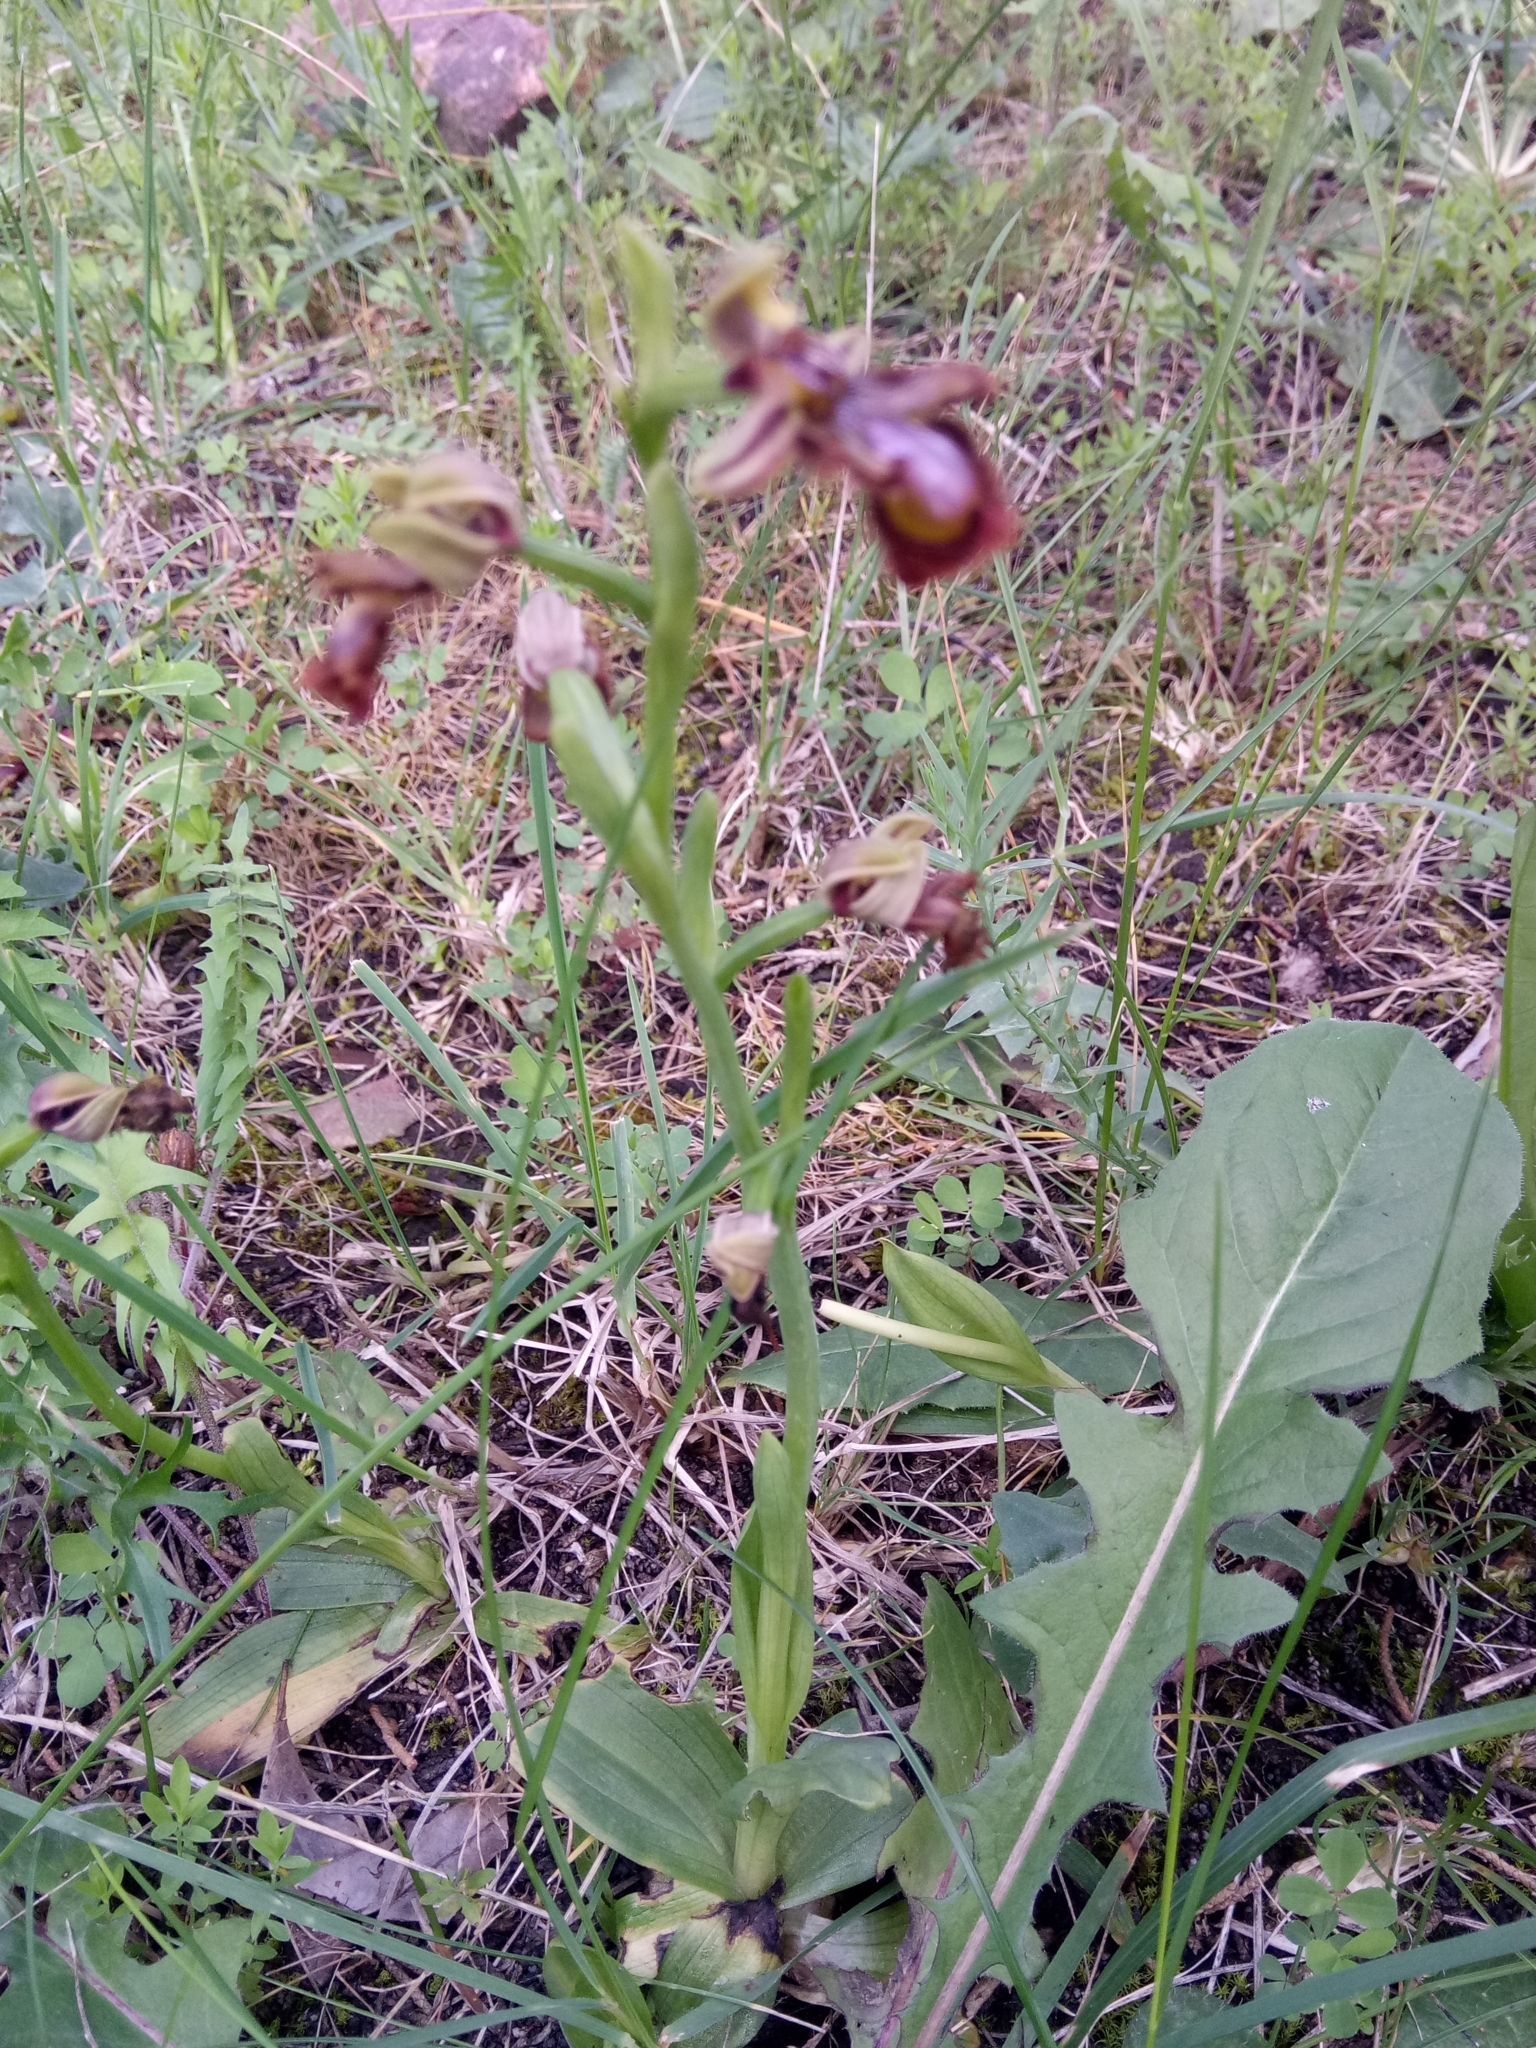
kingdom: Plantae
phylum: Tracheophyta
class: Liliopsida
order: Asparagales
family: Orchidaceae
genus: Ophrys
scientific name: Ophrys speculum
